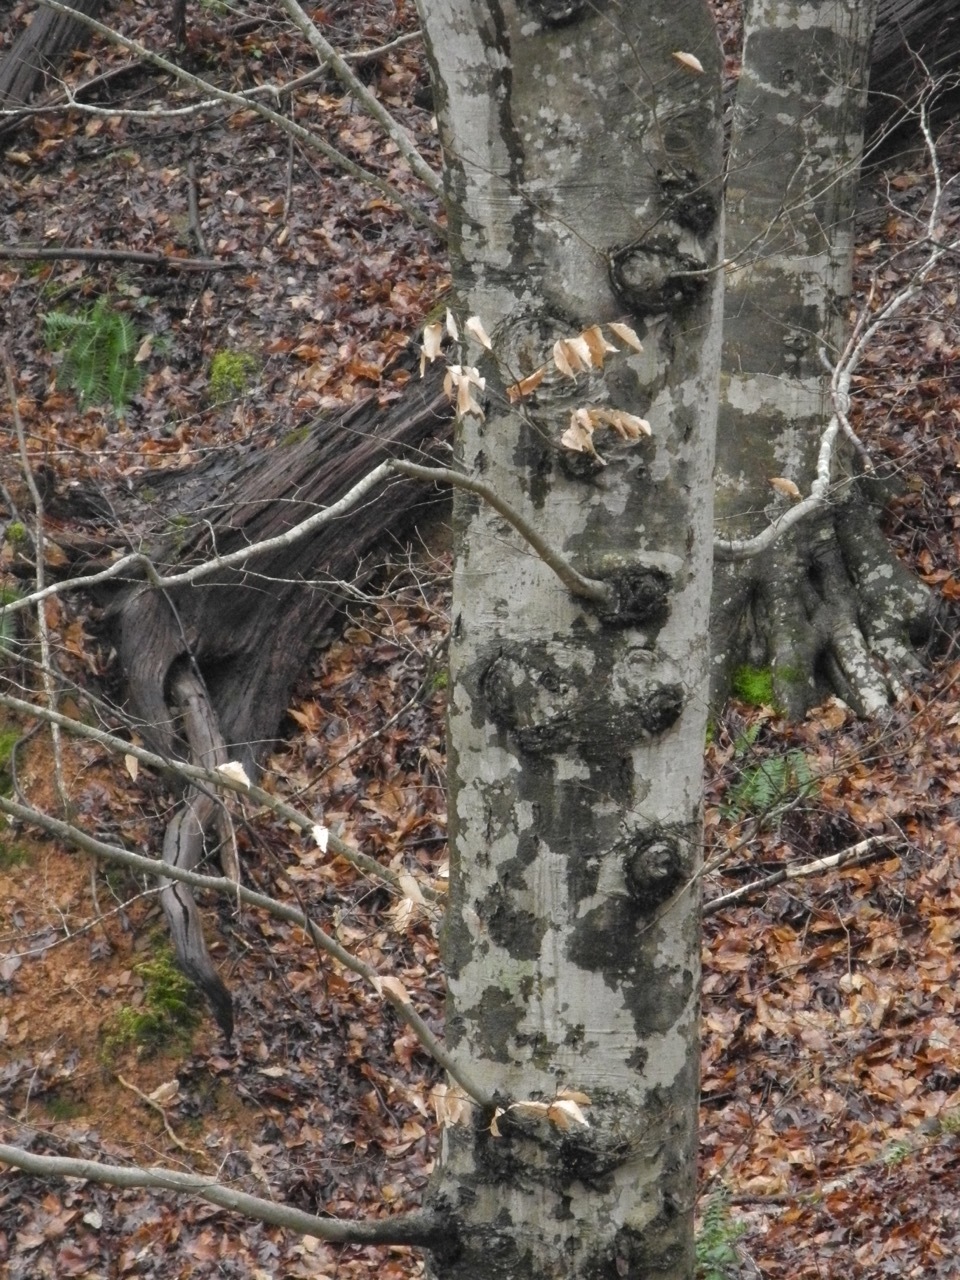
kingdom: Plantae
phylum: Tracheophyta
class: Magnoliopsida
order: Fagales
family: Fagaceae
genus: Fagus
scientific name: Fagus grandifolia
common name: American beech
